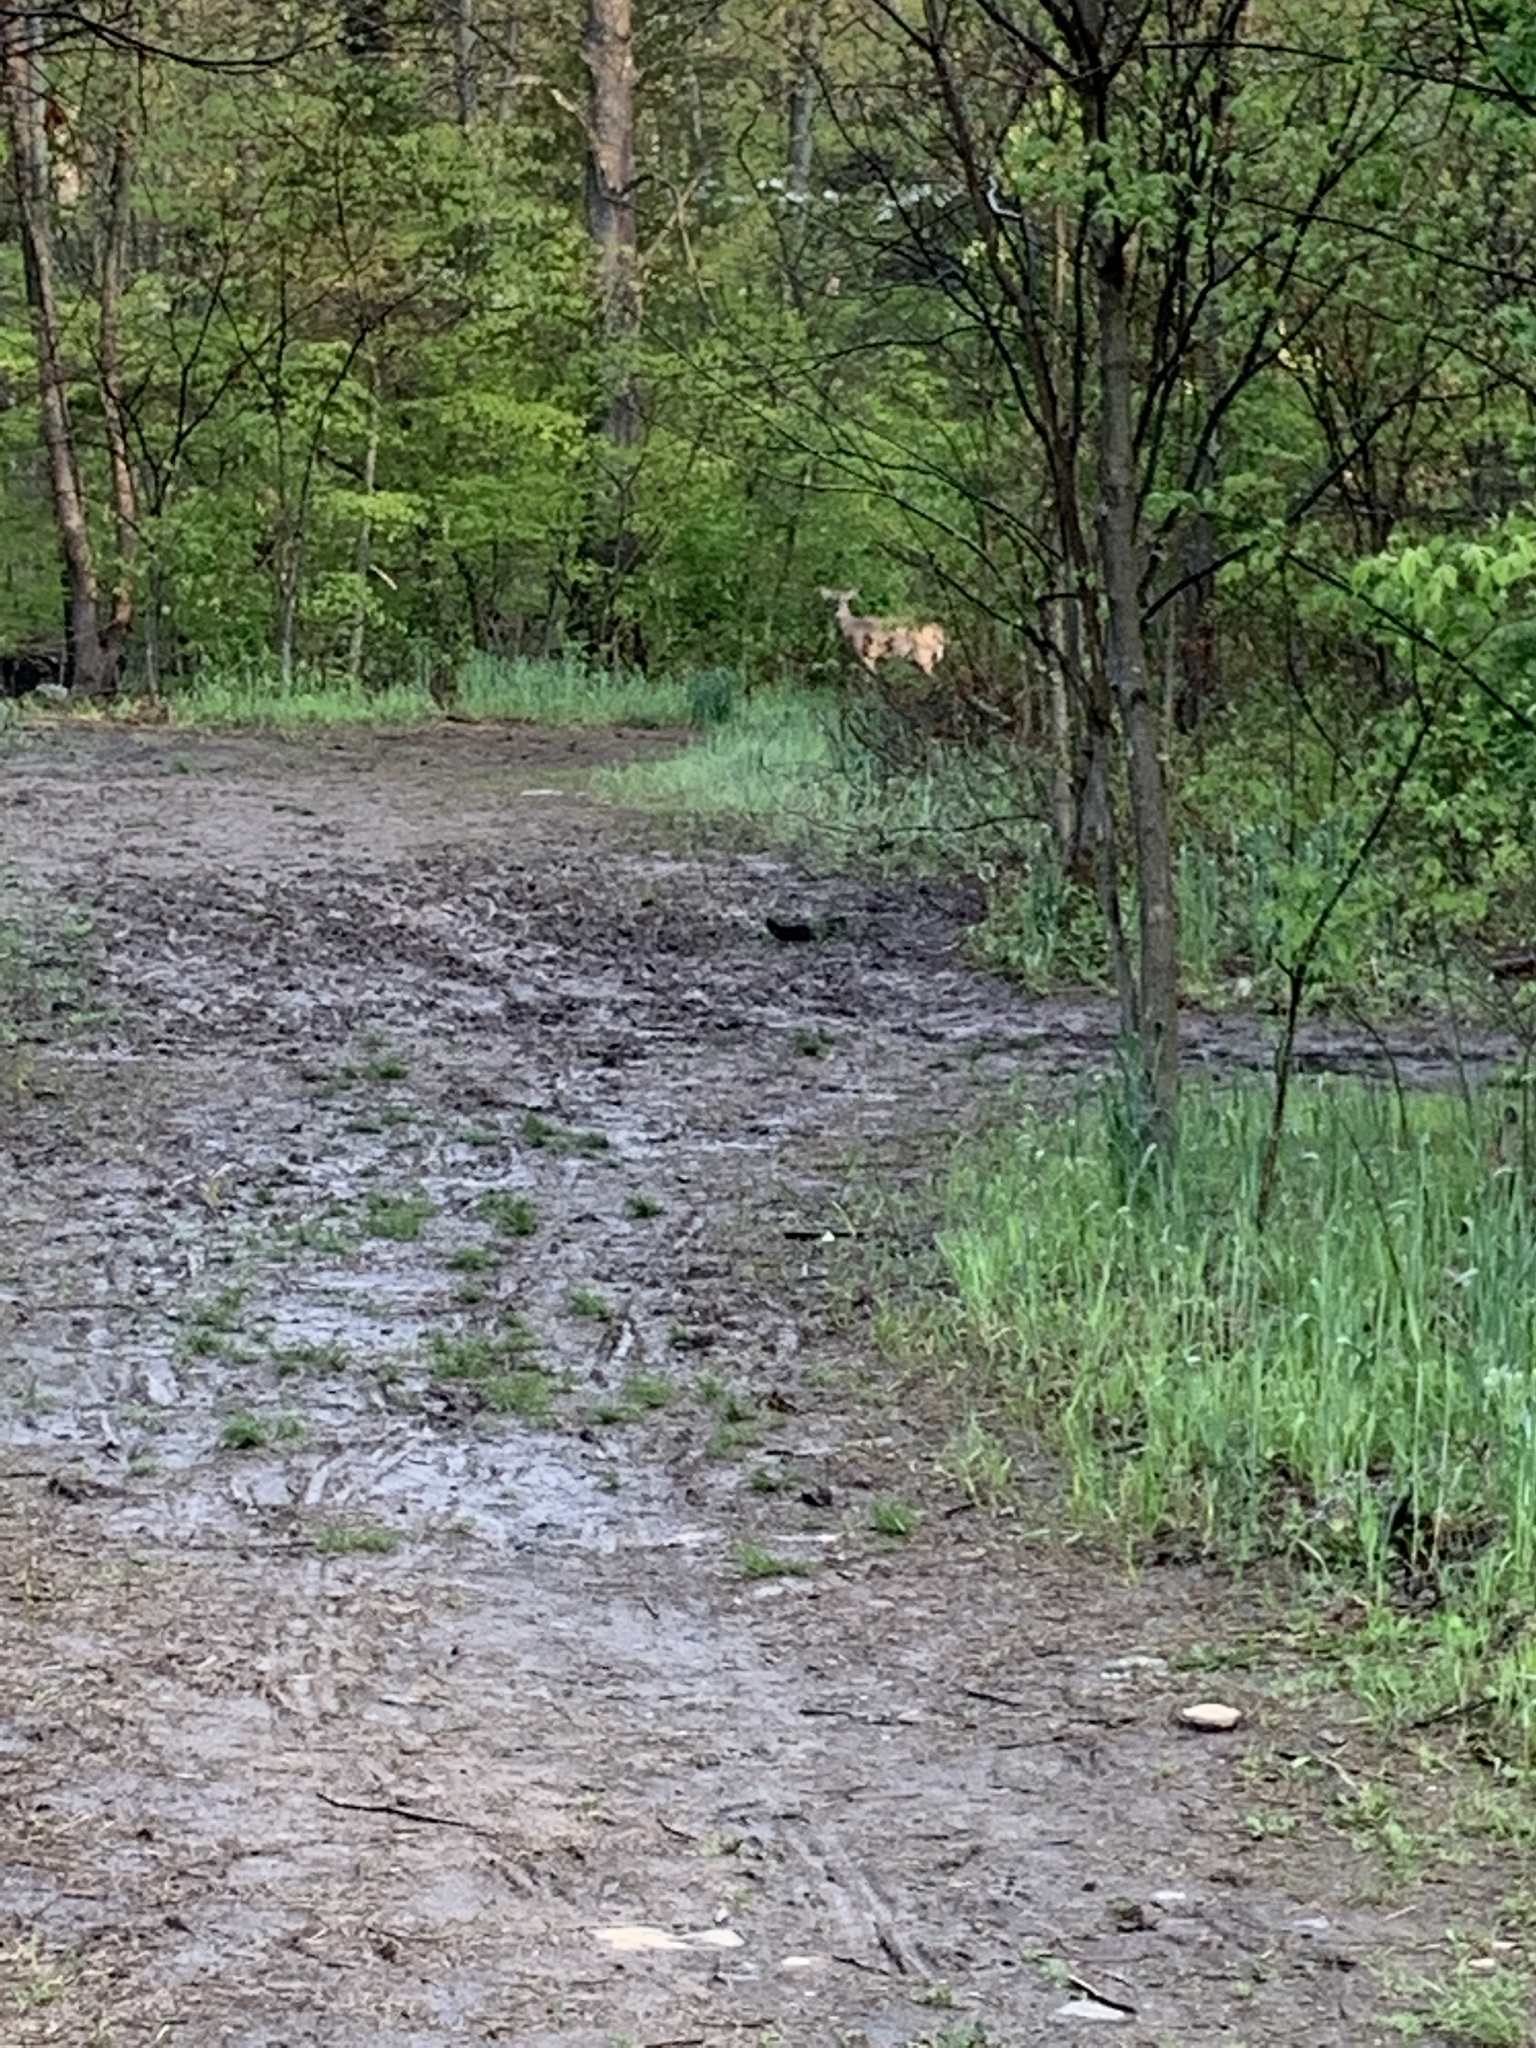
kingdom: Animalia
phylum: Chordata
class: Mammalia
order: Artiodactyla
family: Cervidae
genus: Odocoileus
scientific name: Odocoileus virginianus
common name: White-tailed deer
